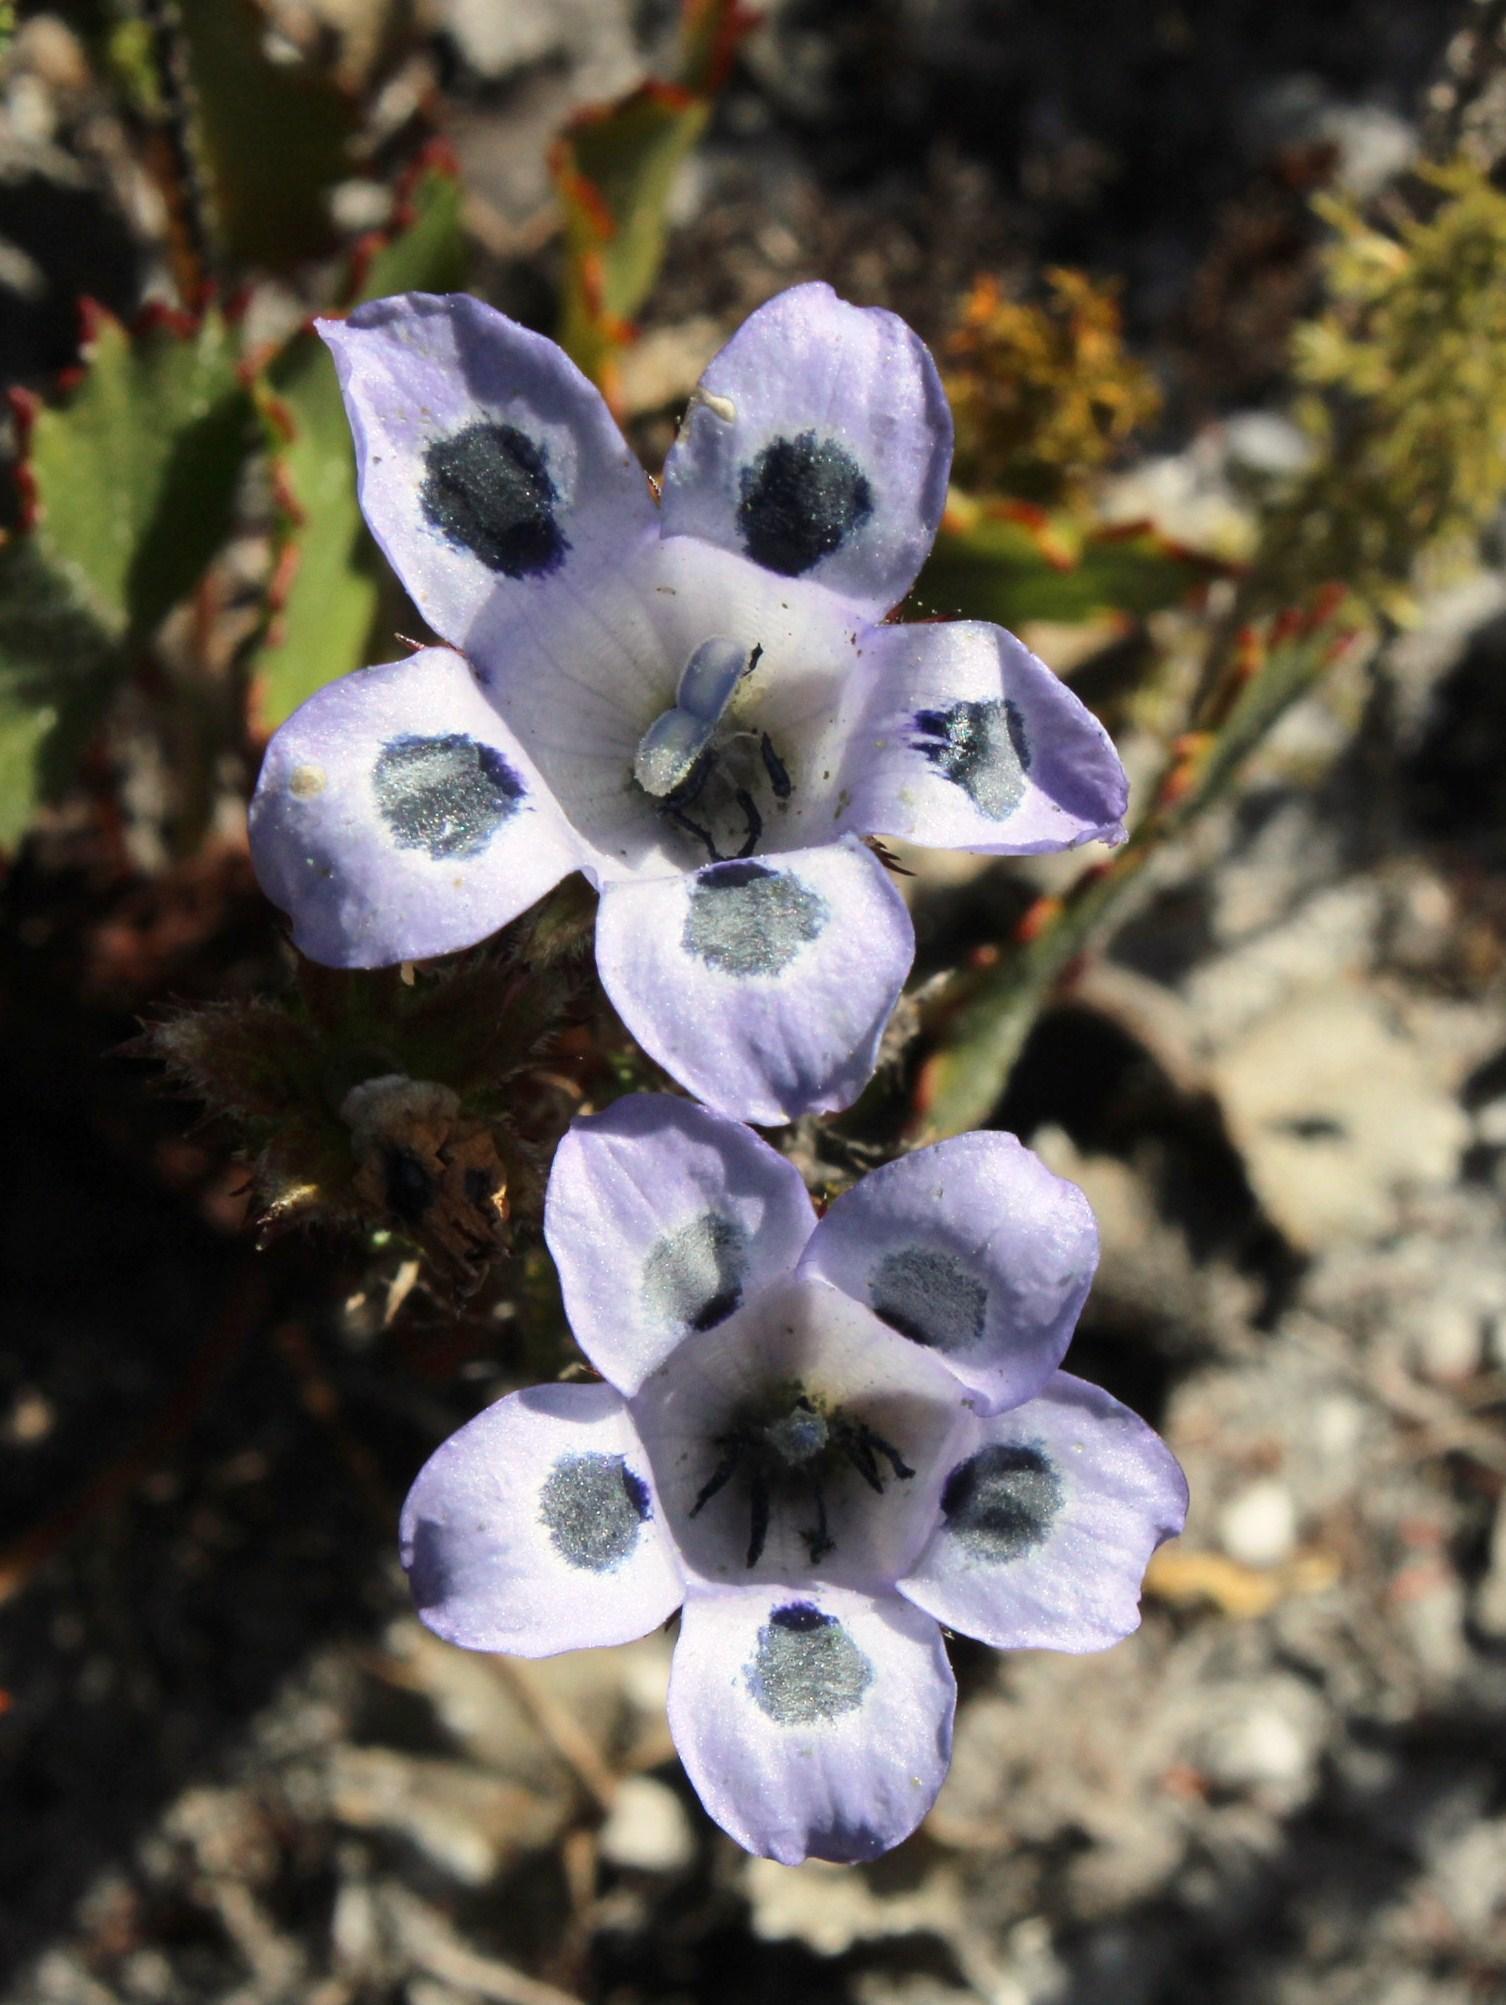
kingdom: Plantae
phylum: Tracheophyta
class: Magnoliopsida
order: Asterales
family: Campanulaceae
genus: Roella
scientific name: Roella incurva
